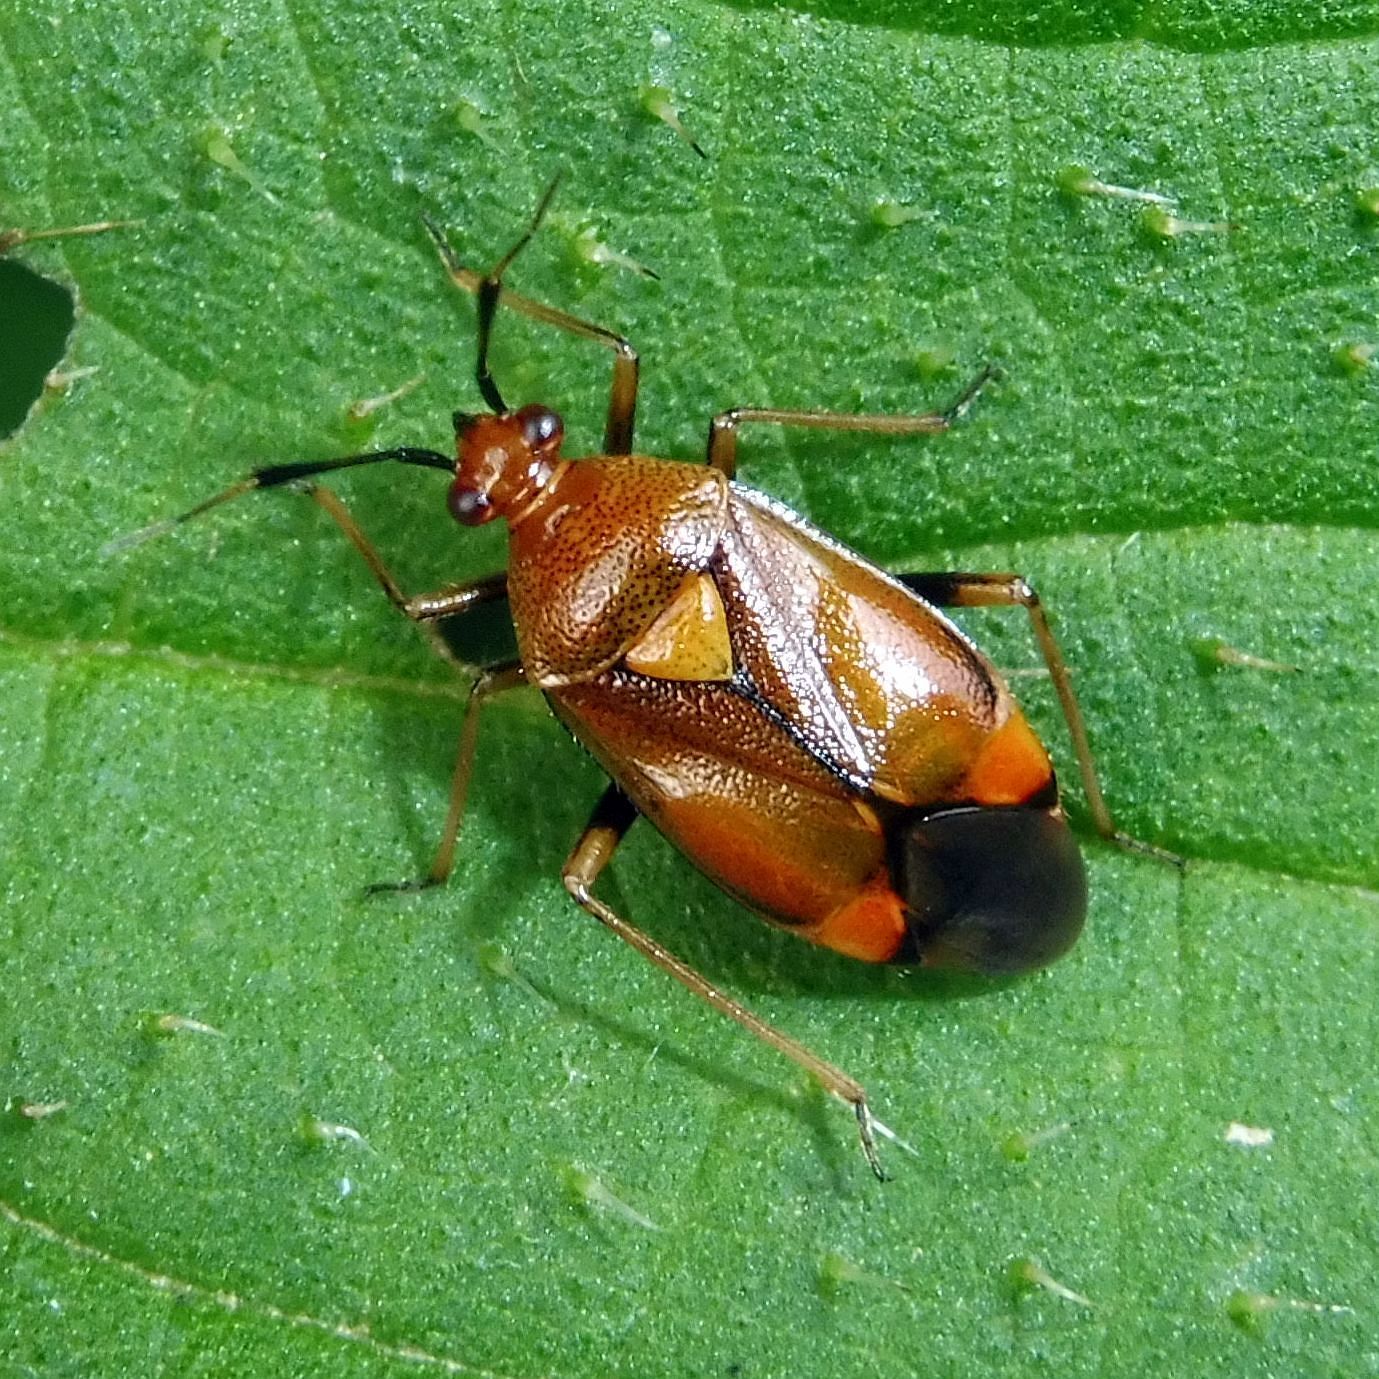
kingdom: Animalia
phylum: Arthropoda
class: Insecta
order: Hemiptera
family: Miridae
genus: Deraeocoris
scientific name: Deraeocoris ruber
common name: Plant bug
